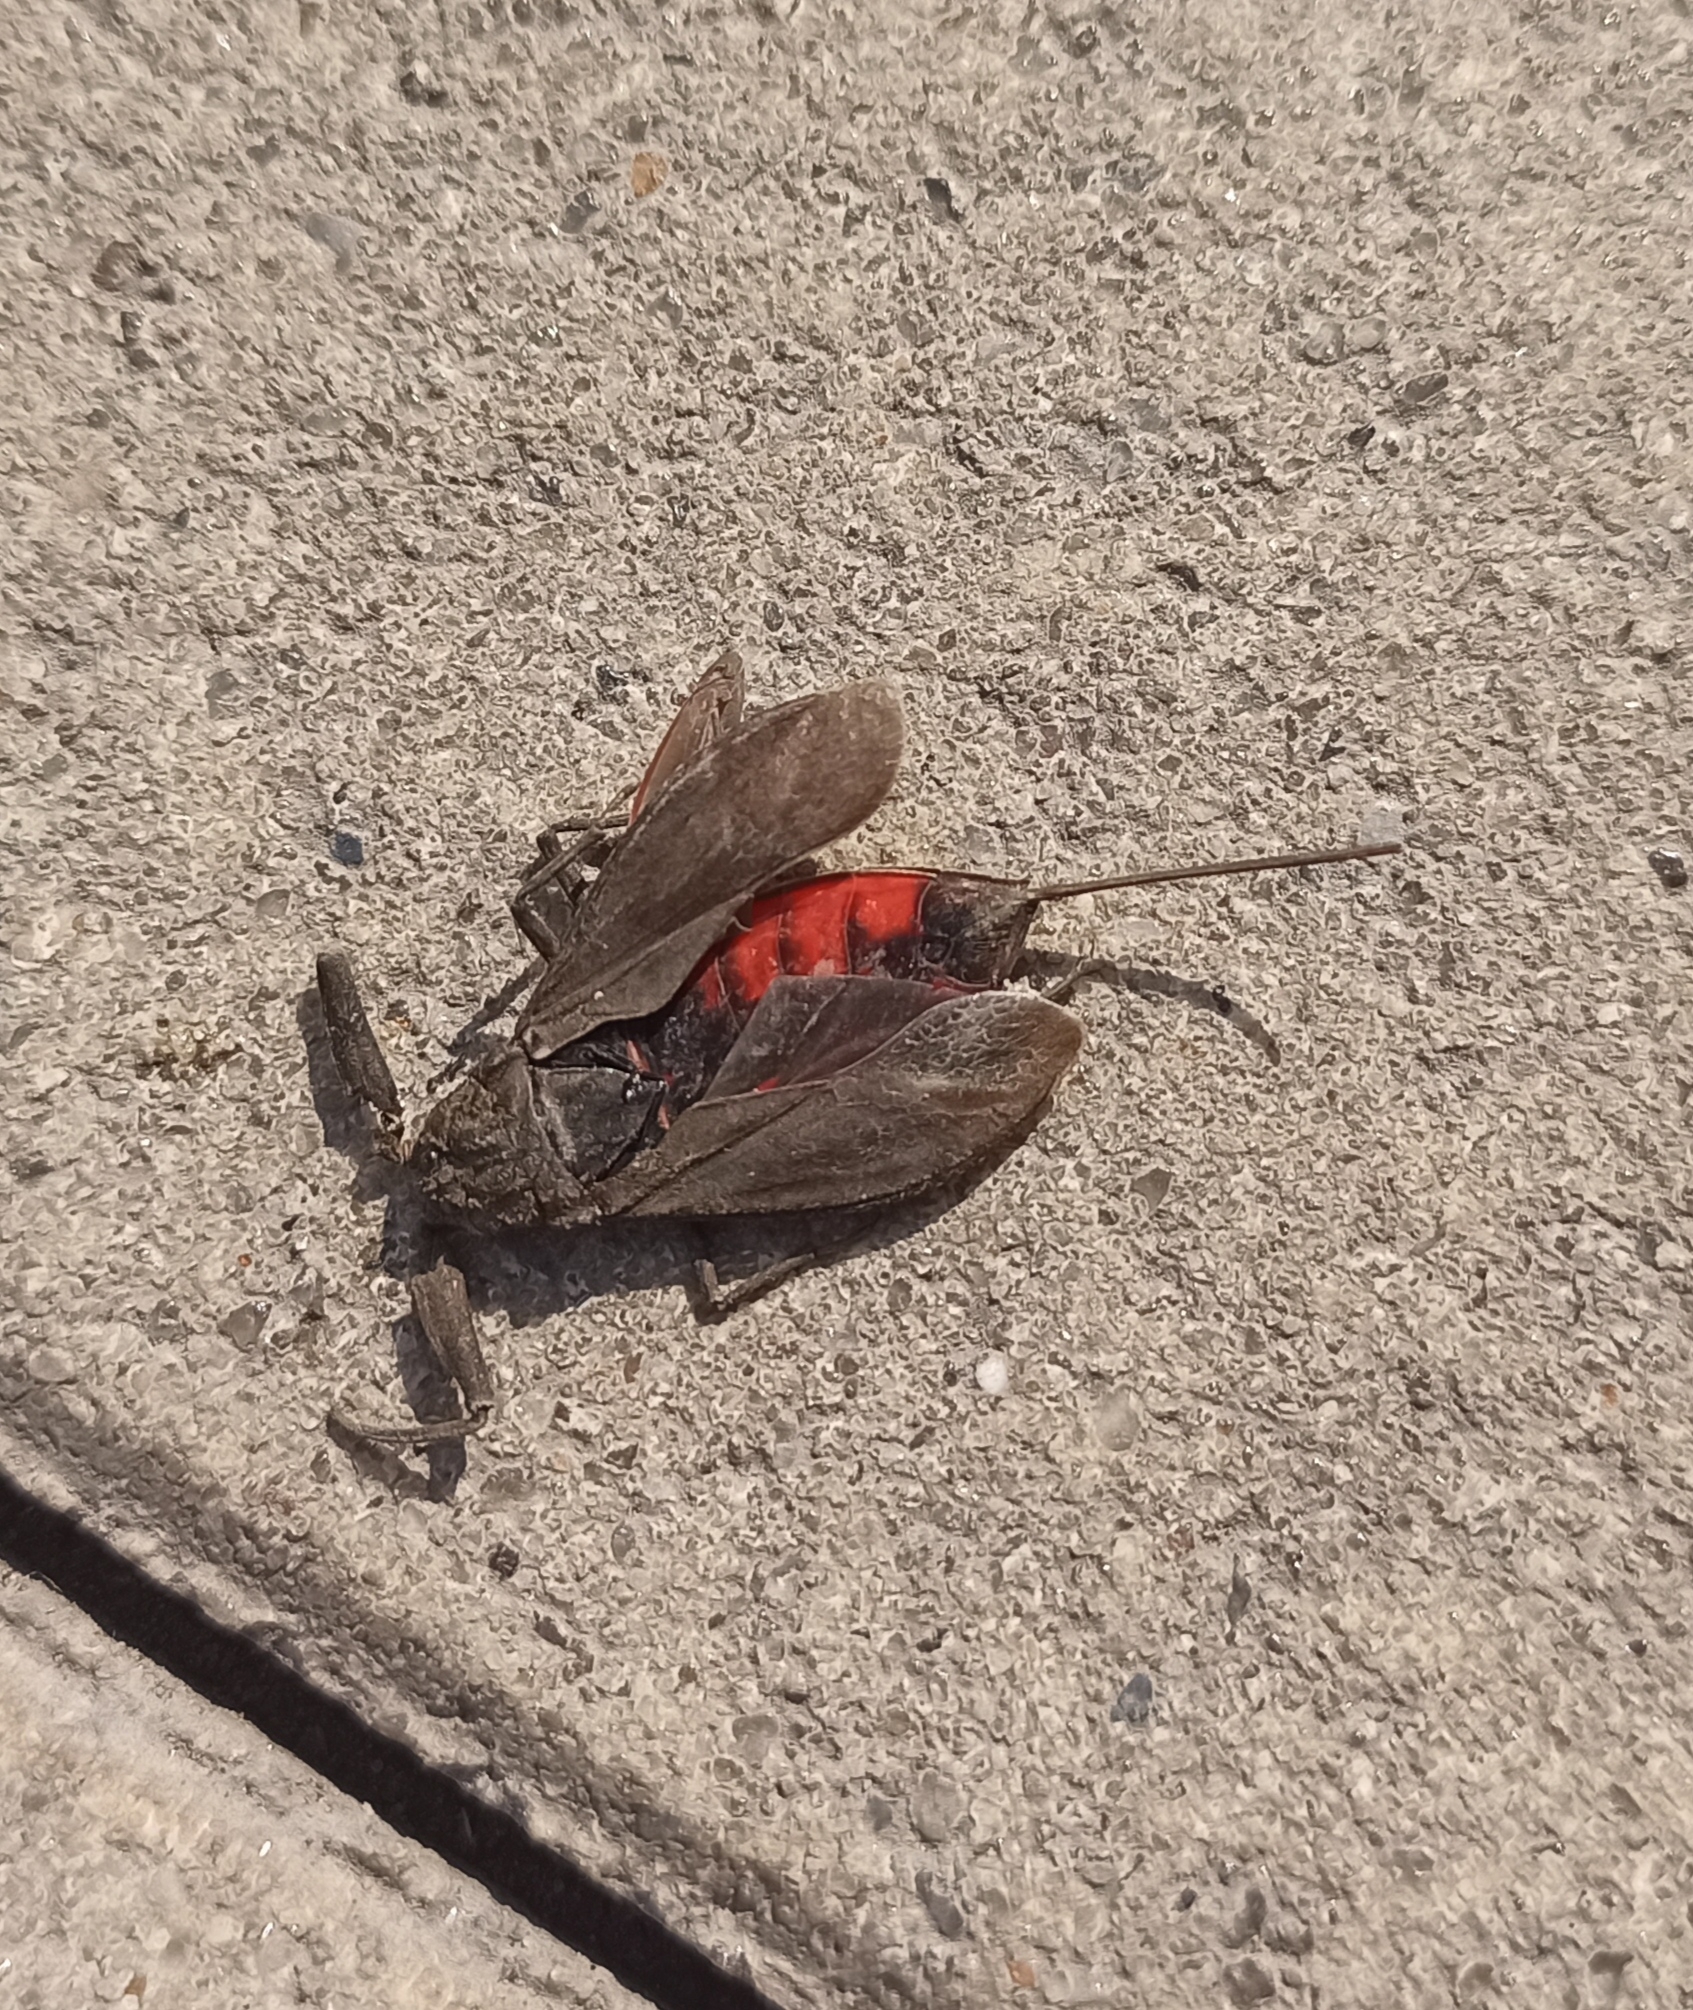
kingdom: Animalia
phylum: Arthropoda
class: Insecta
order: Hemiptera
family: Nepidae
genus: Nepa
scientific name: Nepa cinerea
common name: Water scorpion
